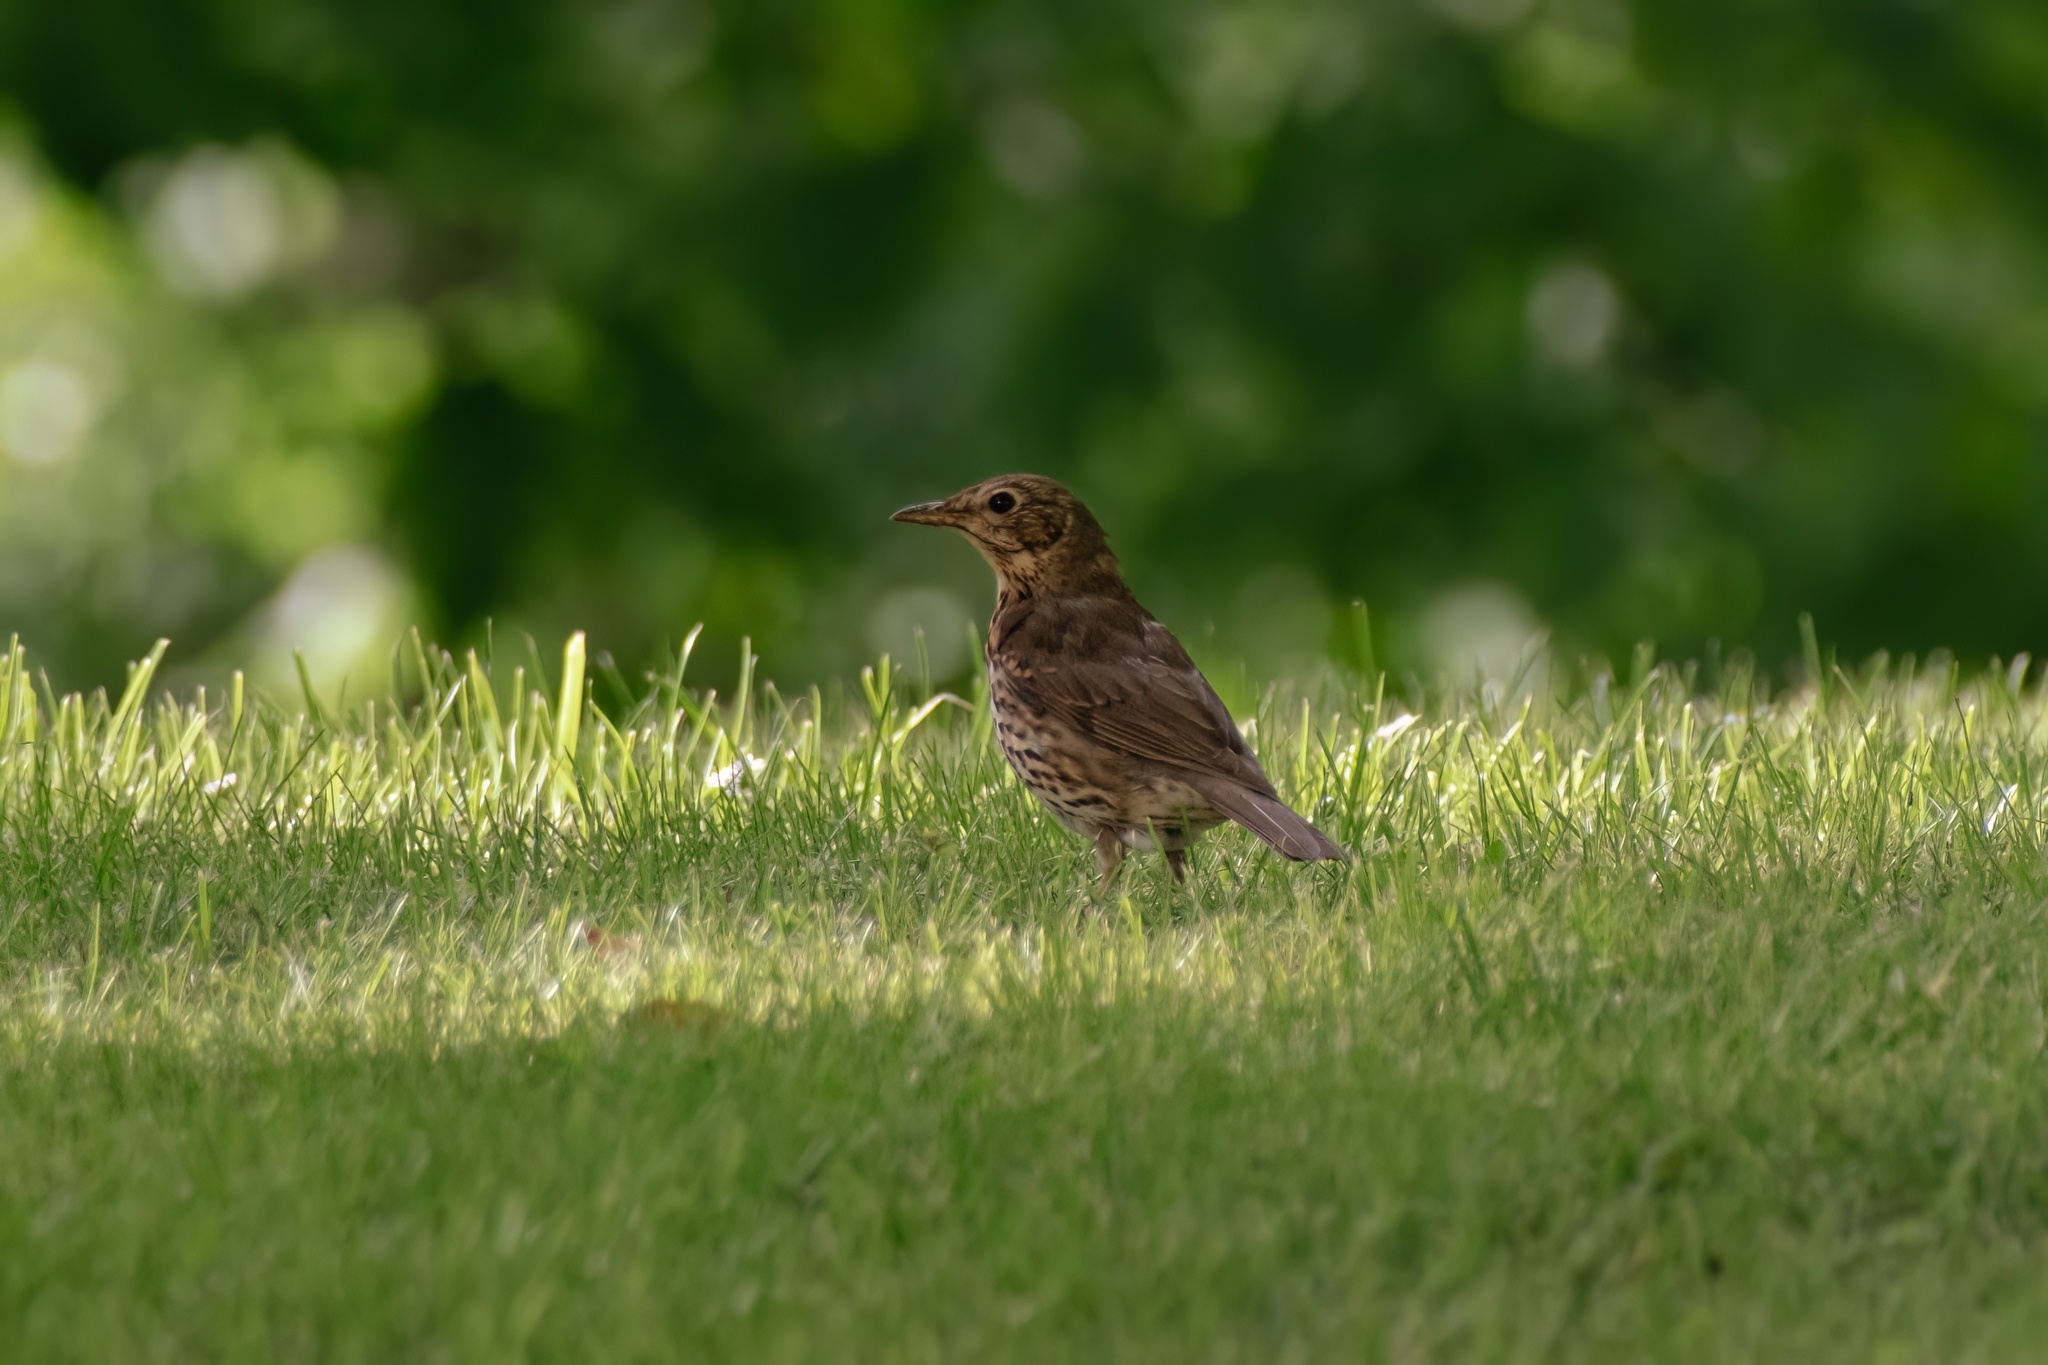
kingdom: Animalia
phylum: Chordata
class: Aves
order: Passeriformes
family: Turdidae
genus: Turdus
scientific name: Turdus philomelos
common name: Song thrush
